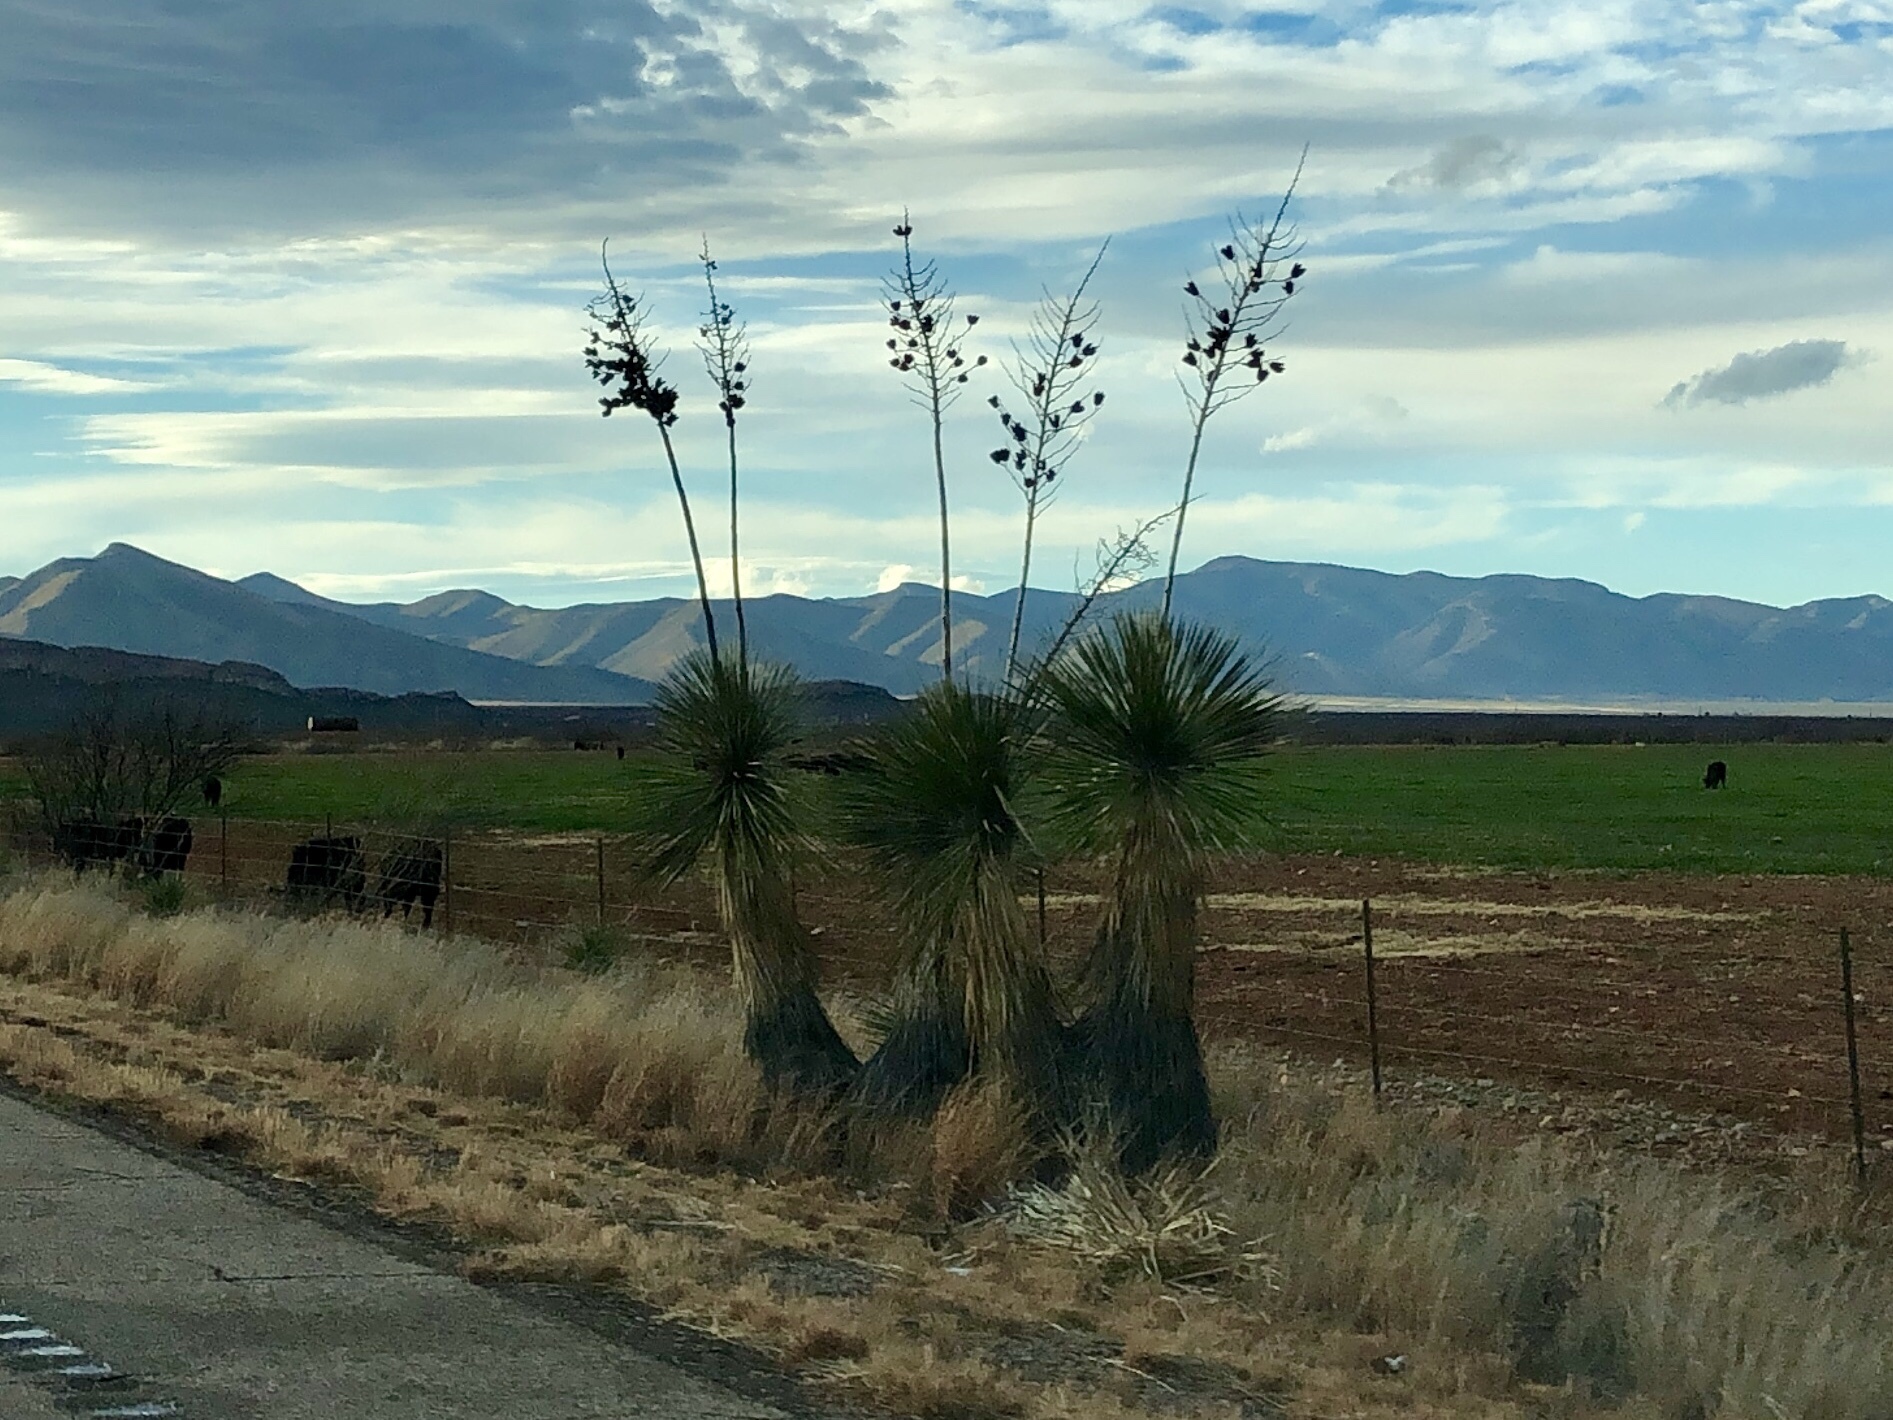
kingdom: Plantae
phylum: Tracheophyta
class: Liliopsida
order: Asparagales
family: Asparagaceae
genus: Yucca
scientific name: Yucca elata
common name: Palmella
